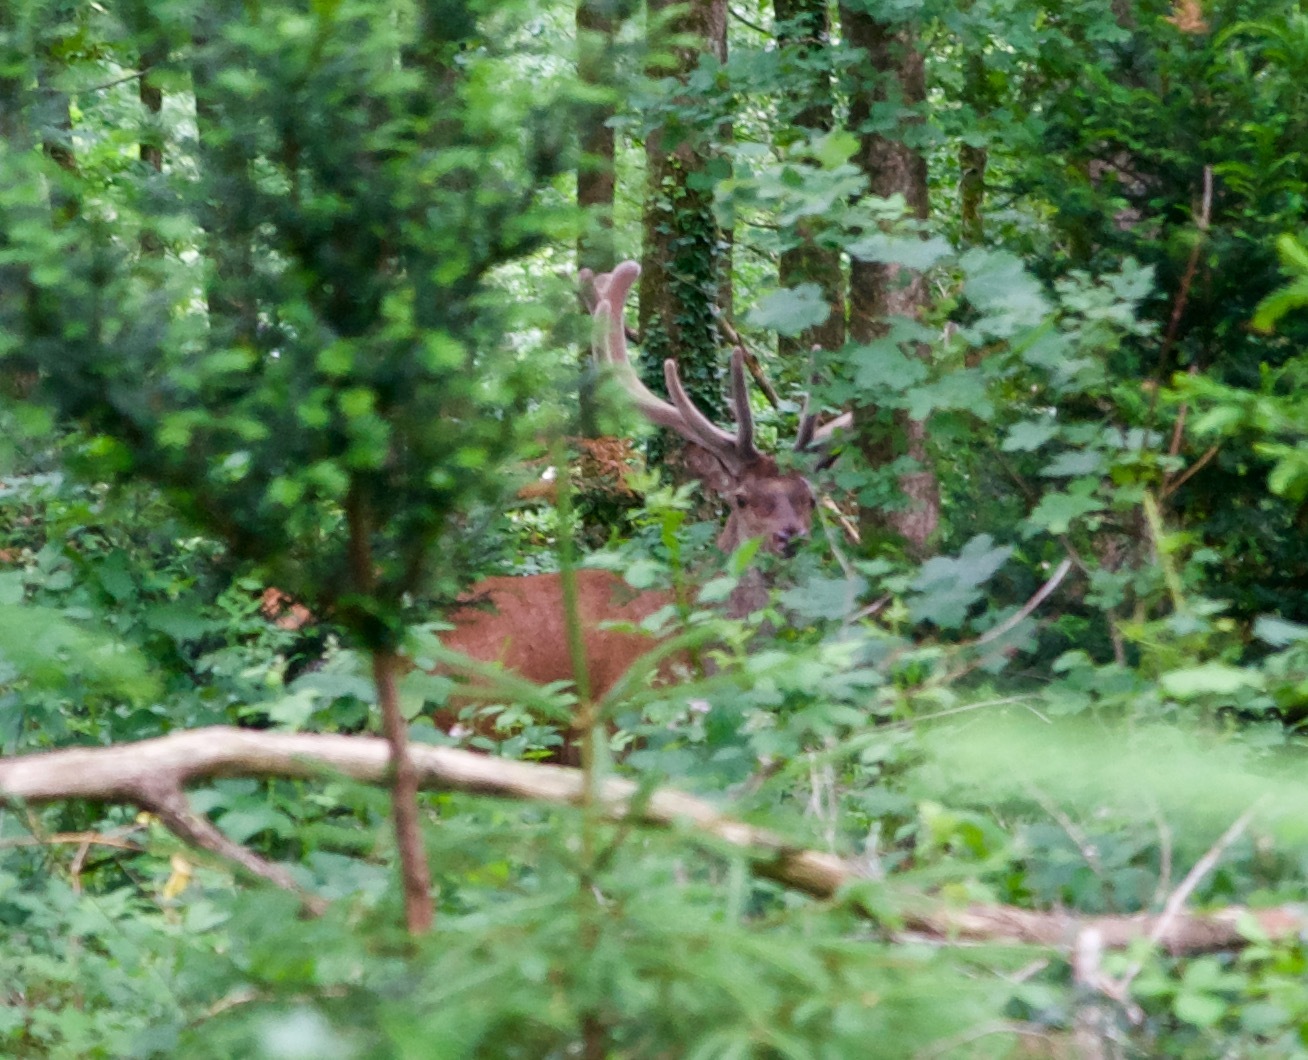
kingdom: Animalia
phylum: Chordata
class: Mammalia
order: Artiodactyla
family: Cervidae
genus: Cervus
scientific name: Cervus elaphus
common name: Red deer
